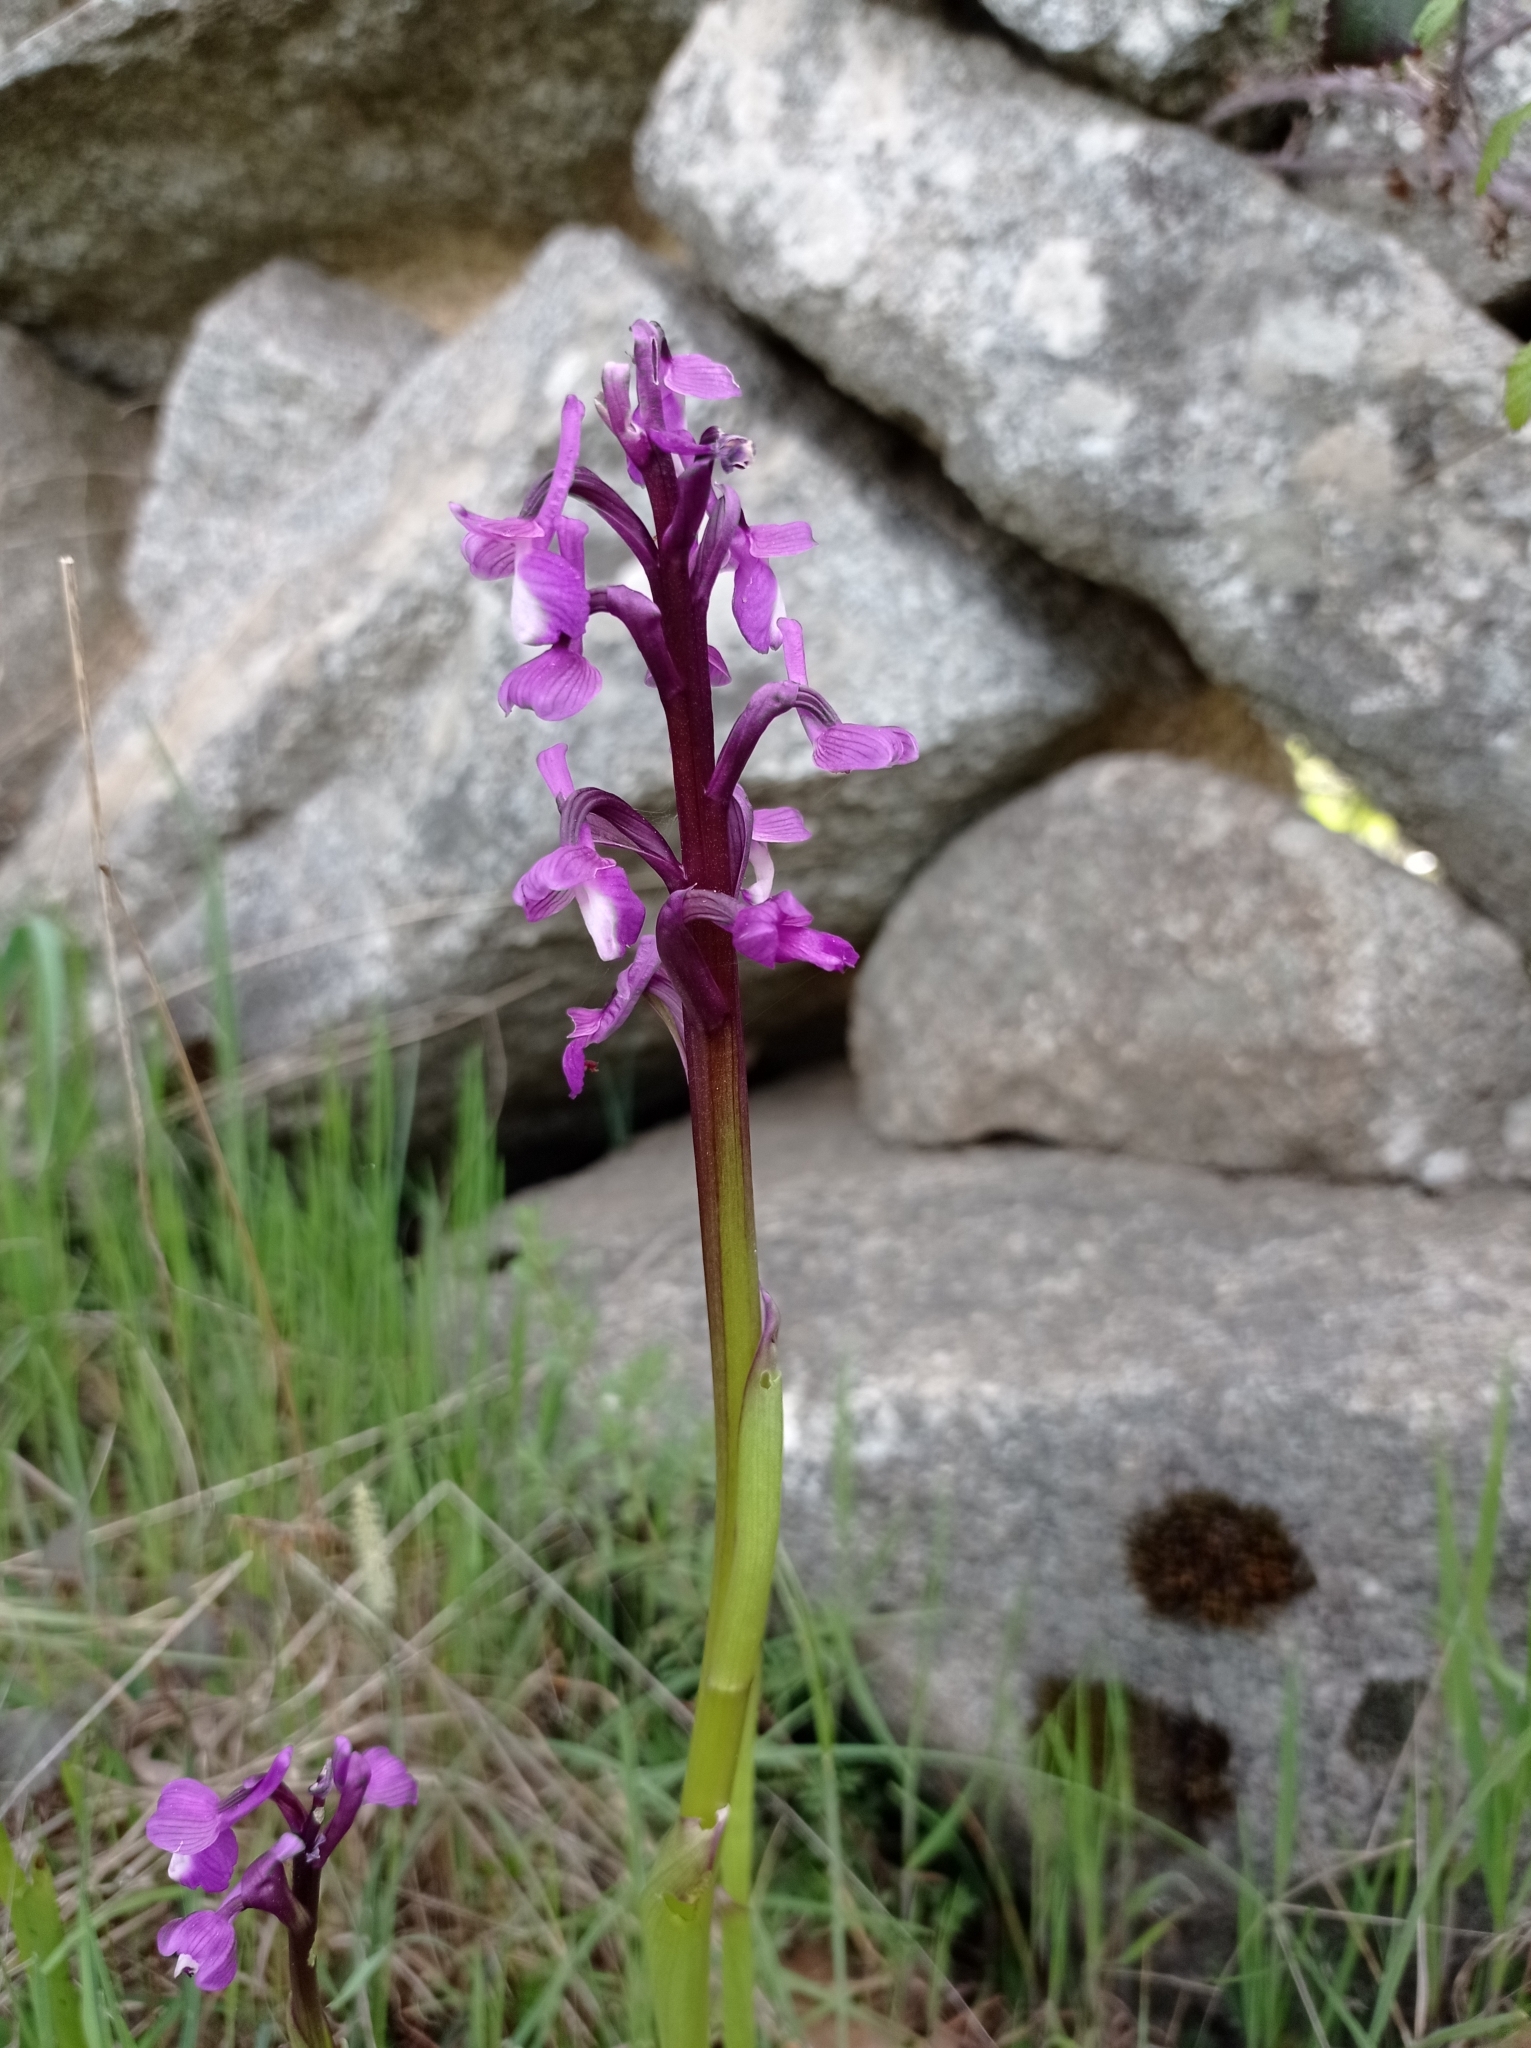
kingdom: Plantae
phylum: Tracheophyta
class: Liliopsida
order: Asparagales
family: Orchidaceae
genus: Anacamptis
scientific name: Anacamptis morio
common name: Green-winged orchid
